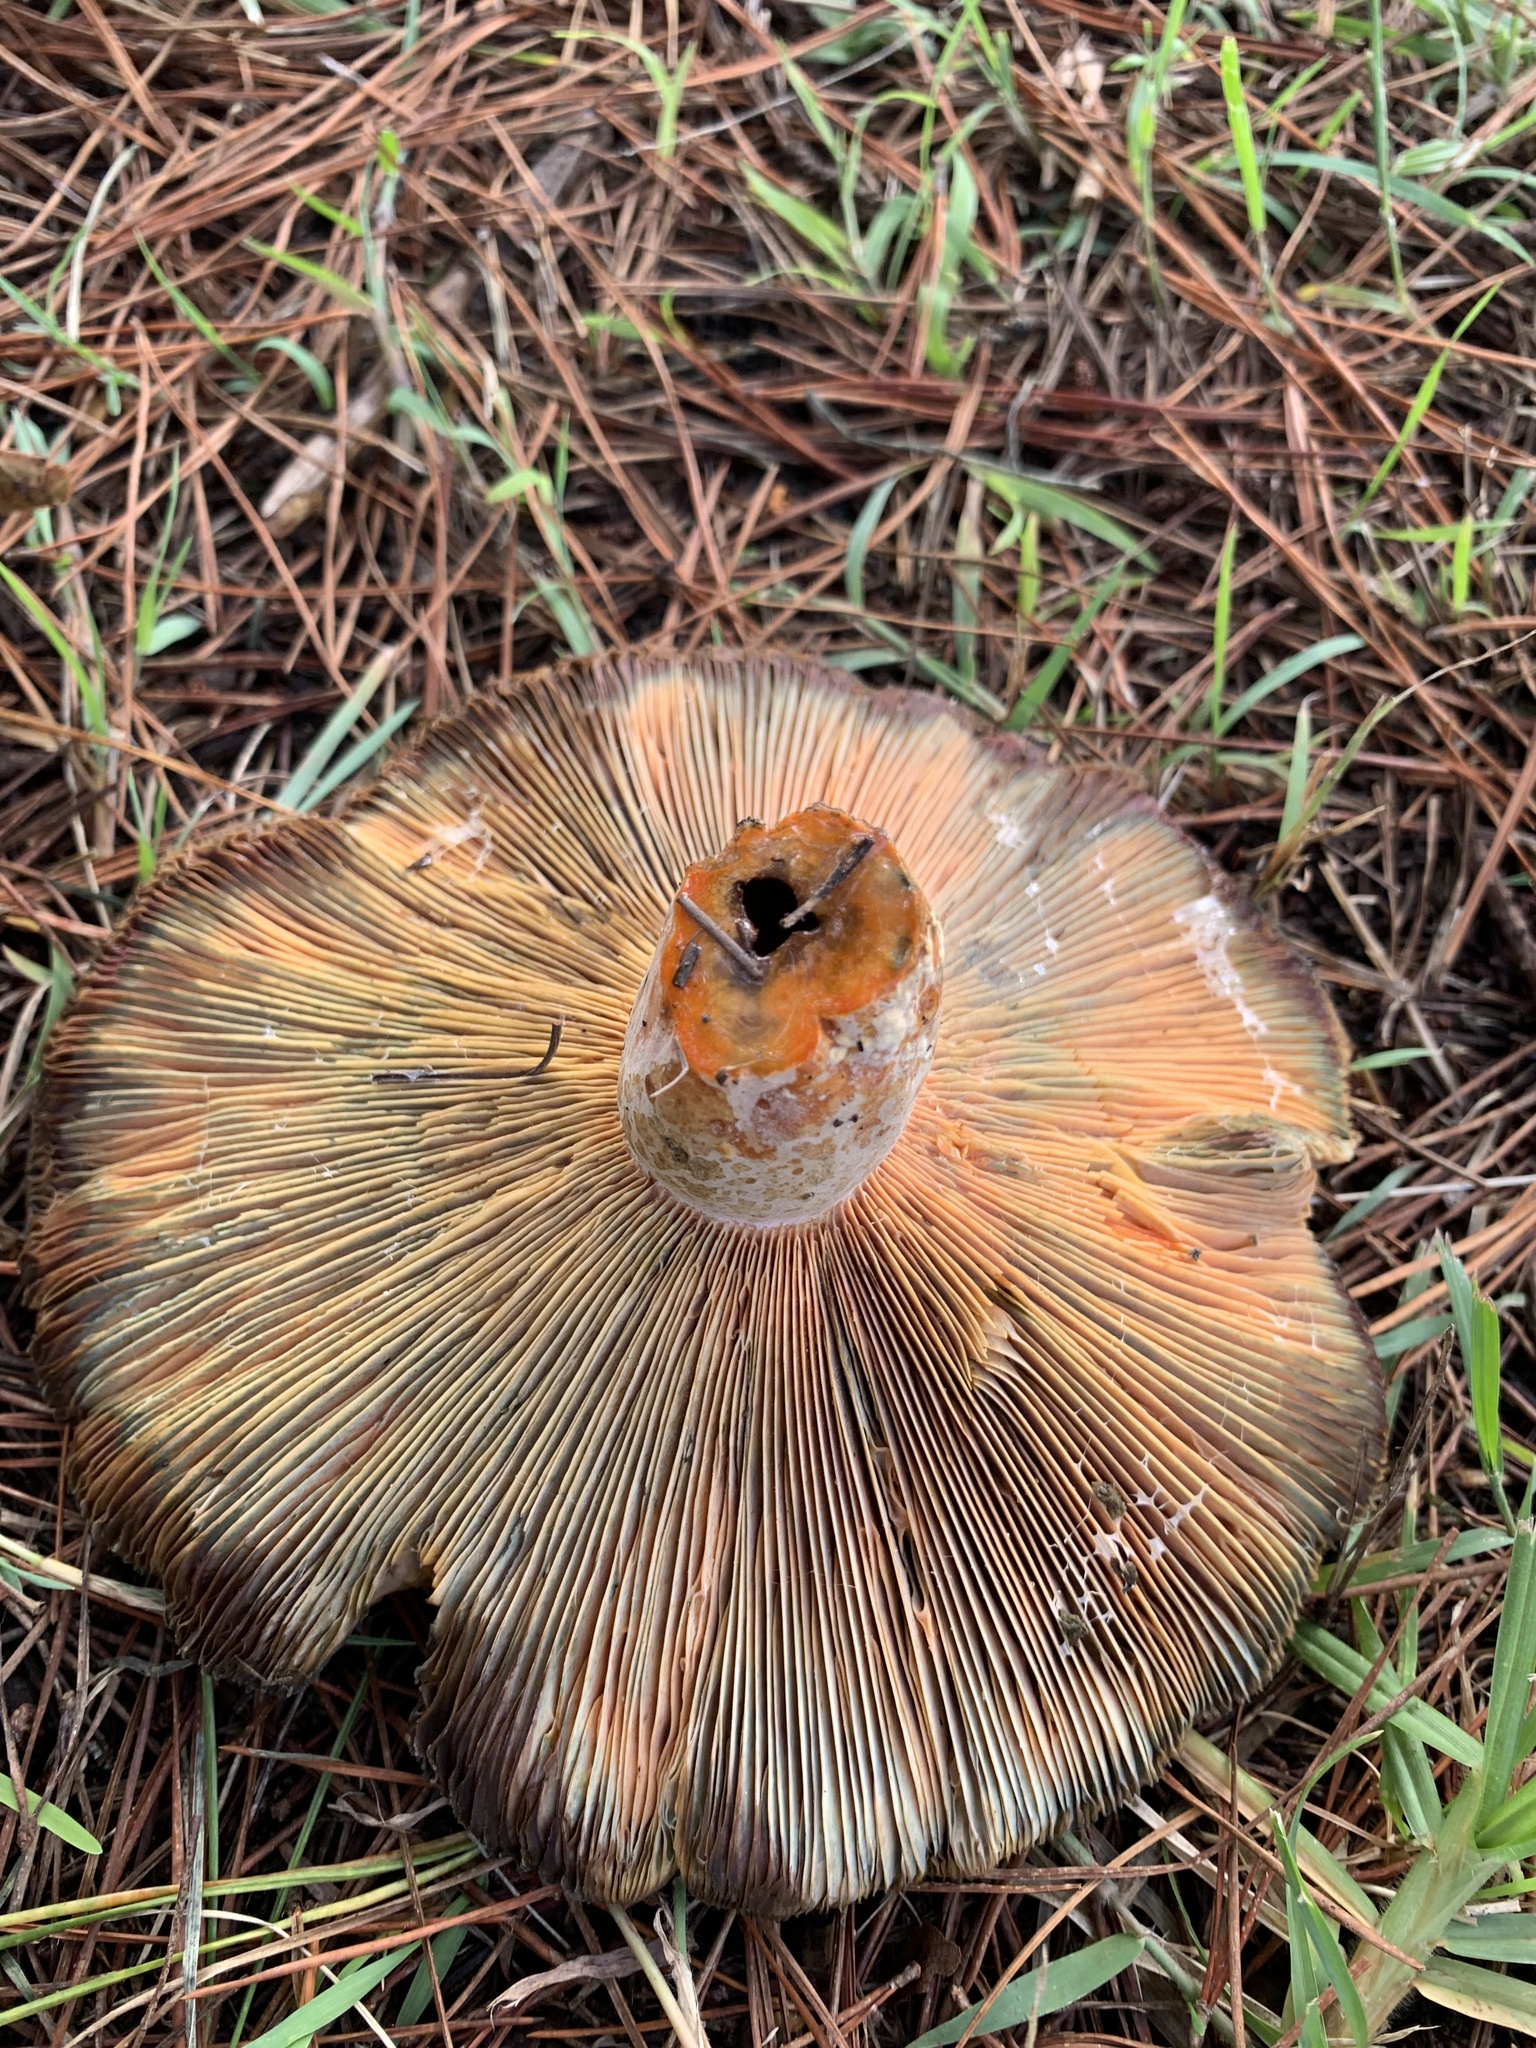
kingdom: Fungi
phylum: Basidiomycota
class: Agaricomycetes
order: Russulales
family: Russulaceae
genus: Lactarius
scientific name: Lactarius deliciosus
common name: Saffron milk-cap
